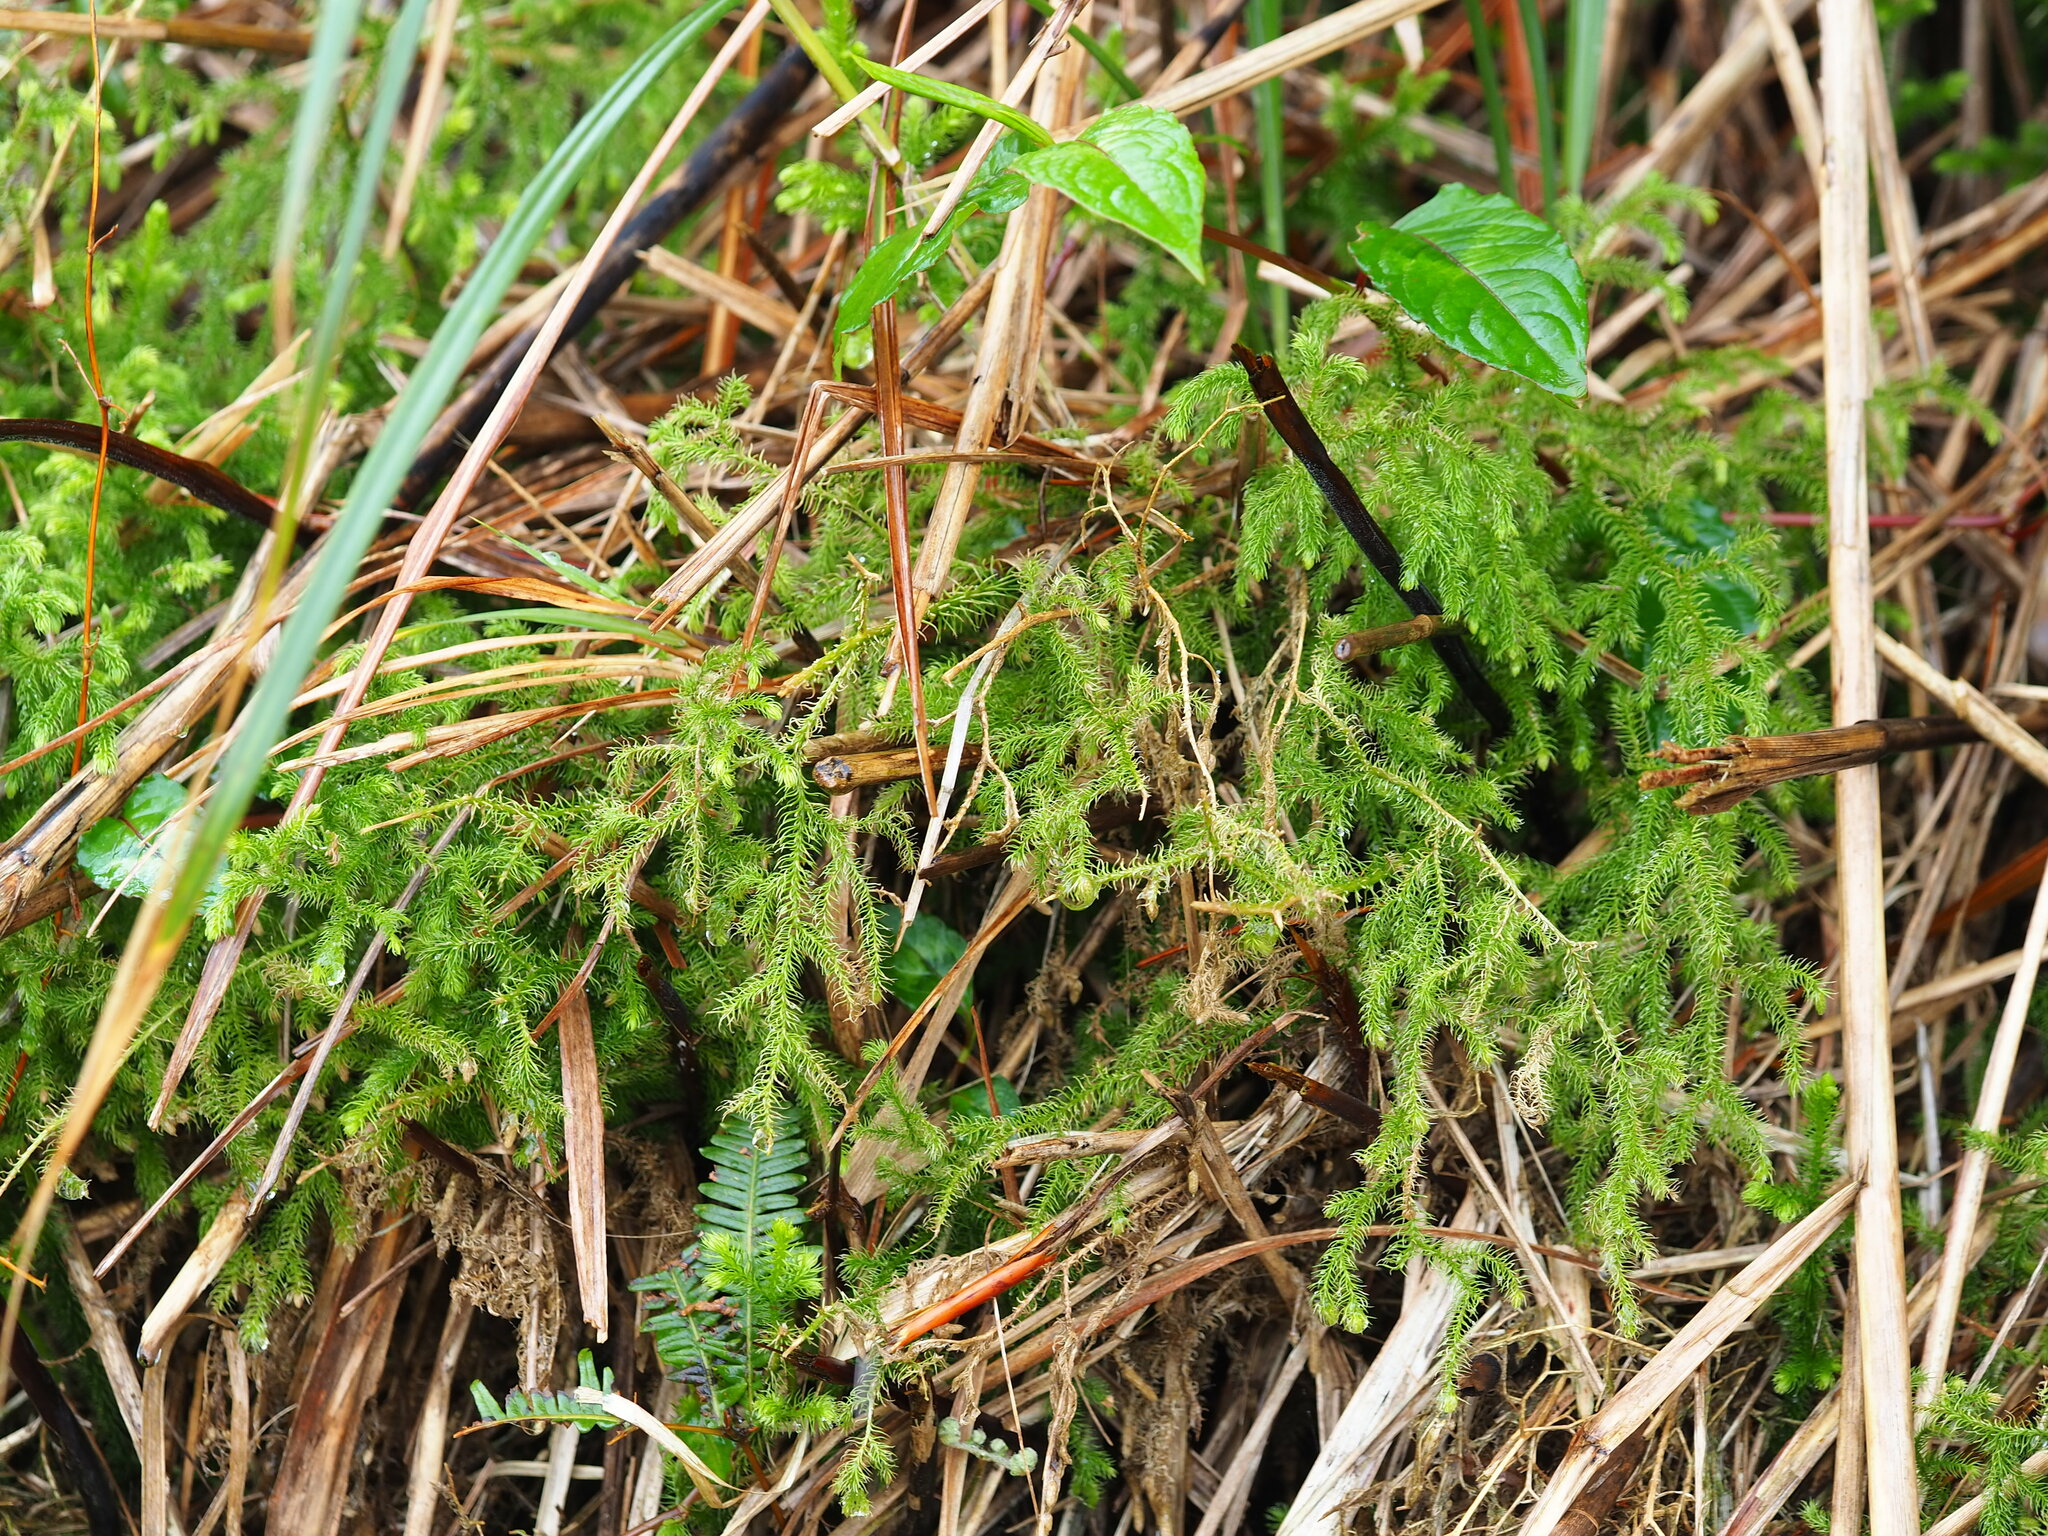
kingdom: Plantae
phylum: Tracheophyta
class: Lycopodiopsida
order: Lycopodiales
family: Lycopodiaceae
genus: Palhinhaea
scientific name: Palhinhaea cernua
